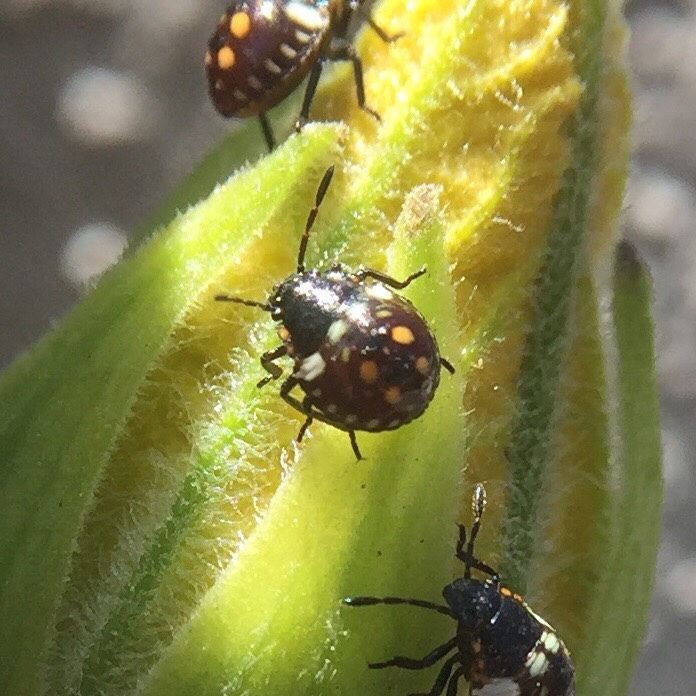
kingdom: Animalia
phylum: Arthropoda
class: Insecta
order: Hemiptera
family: Pentatomidae
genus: Nezara
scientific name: Nezara viridula
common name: Southern green stink bug
